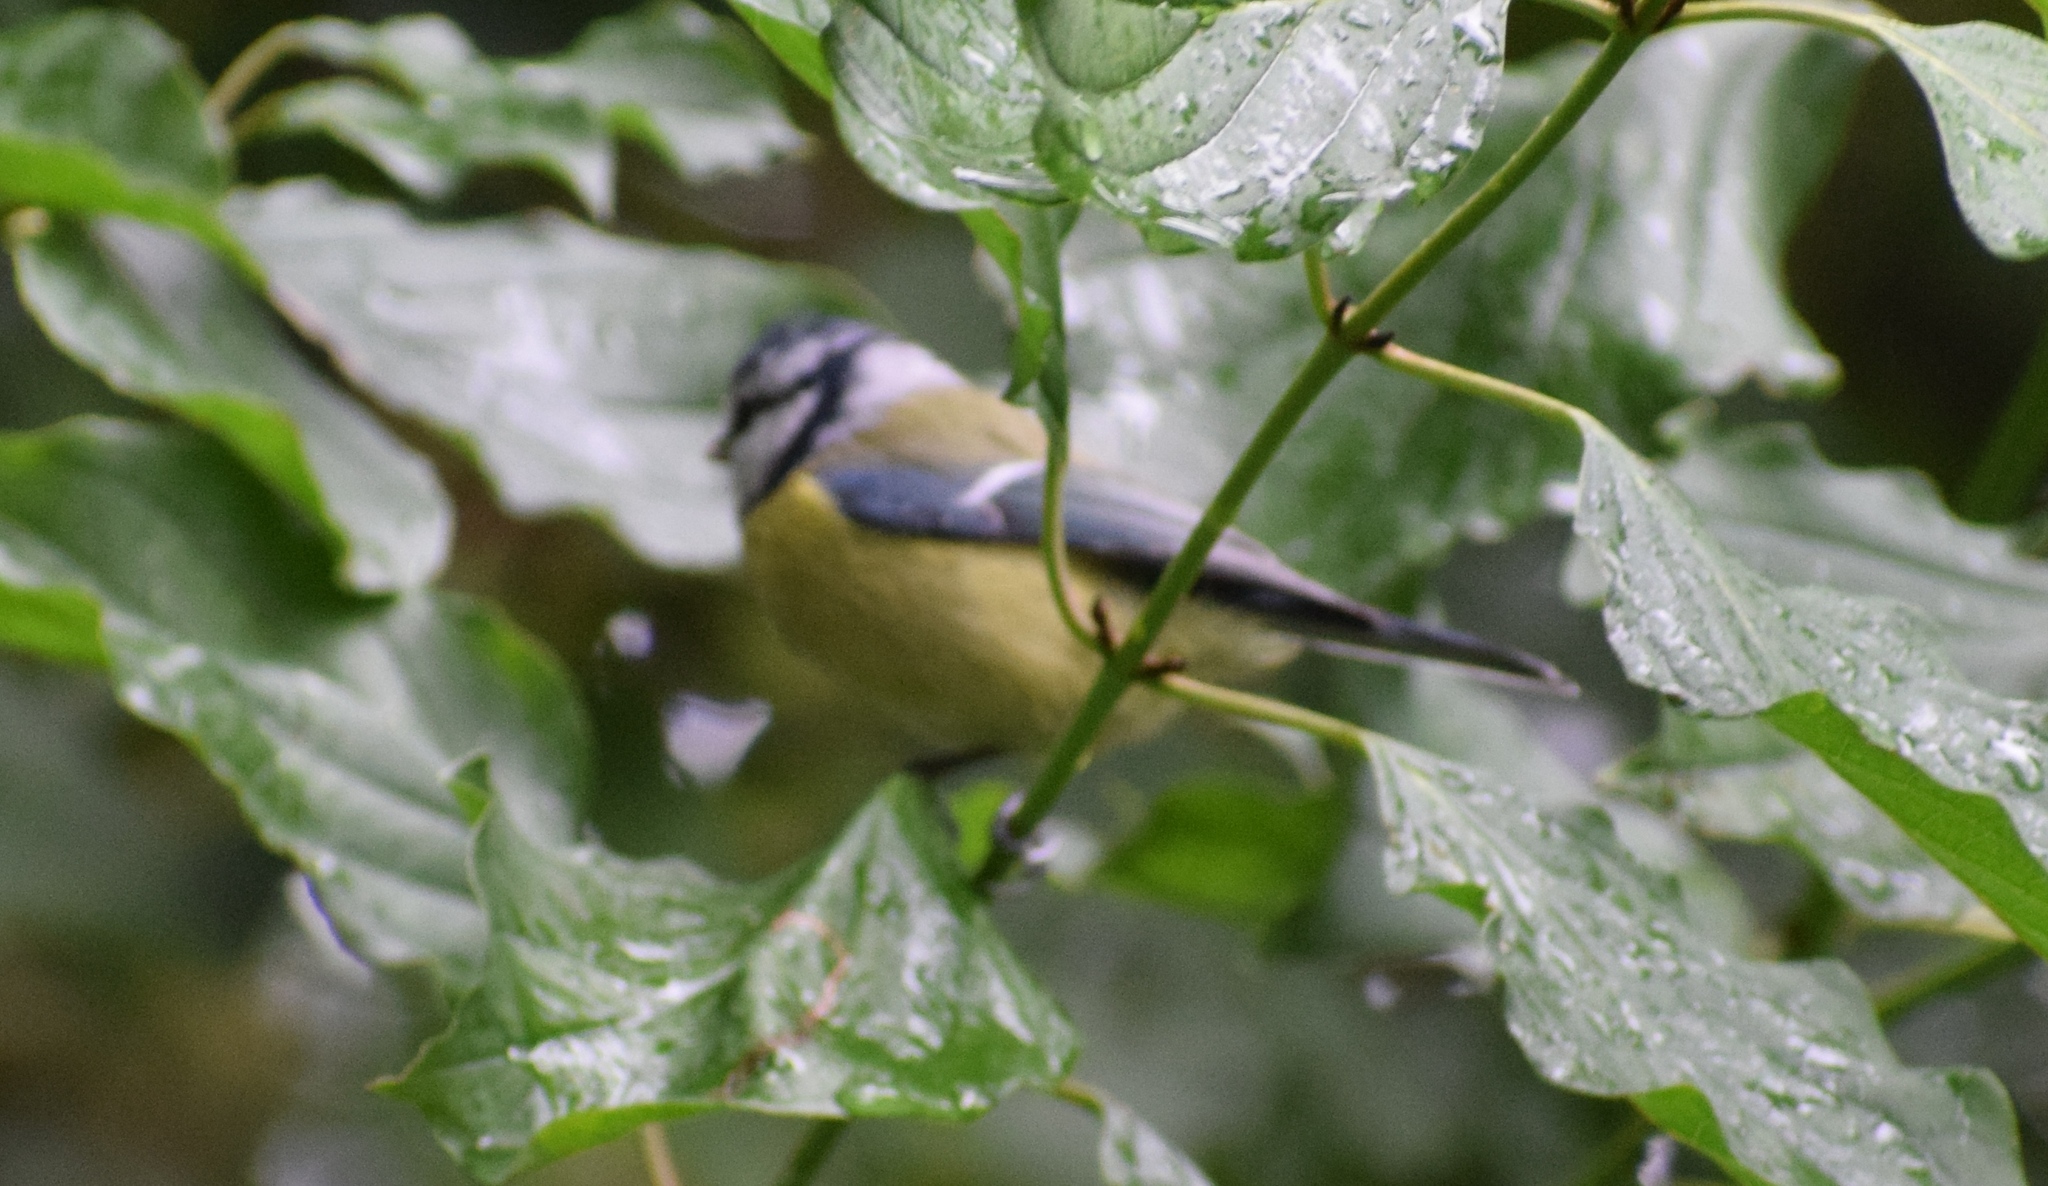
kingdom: Animalia
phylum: Chordata
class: Aves
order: Passeriformes
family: Paridae
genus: Cyanistes
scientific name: Cyanistes caeruleus
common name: Eurasian blue tit
